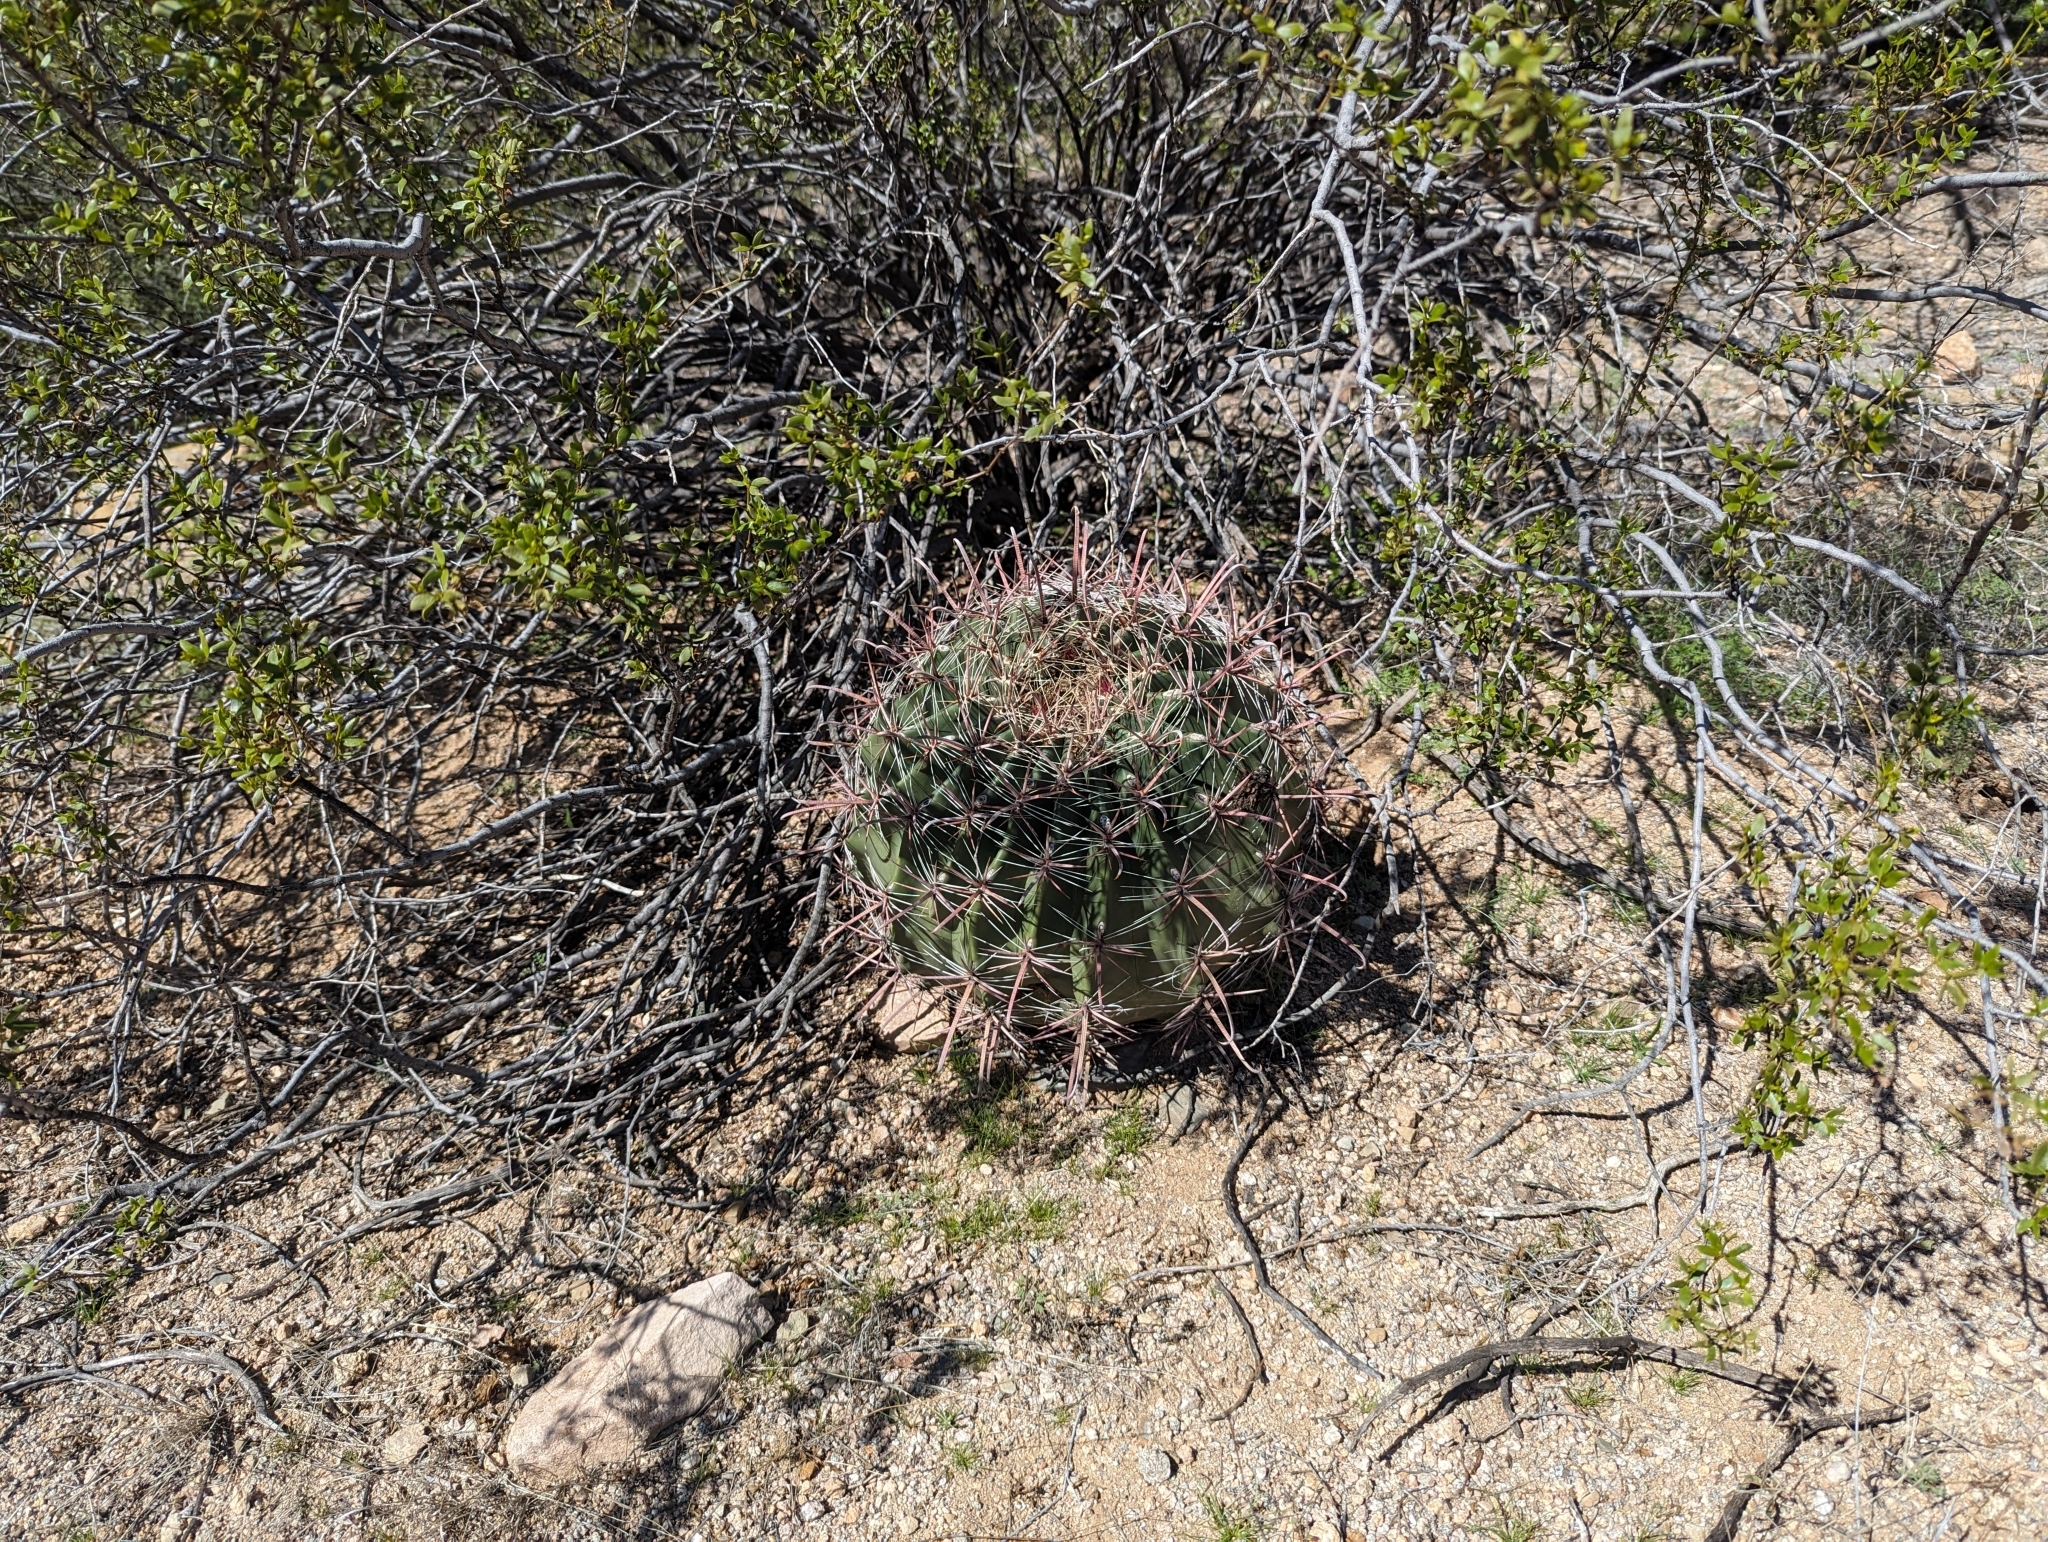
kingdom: Plantae
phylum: Tracheophyta
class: Magnoliopsida
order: Caryophyllales
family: Cactaceae
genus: Ferocactus
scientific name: Ferocactus wislizeni
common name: Candy barrel cactus
